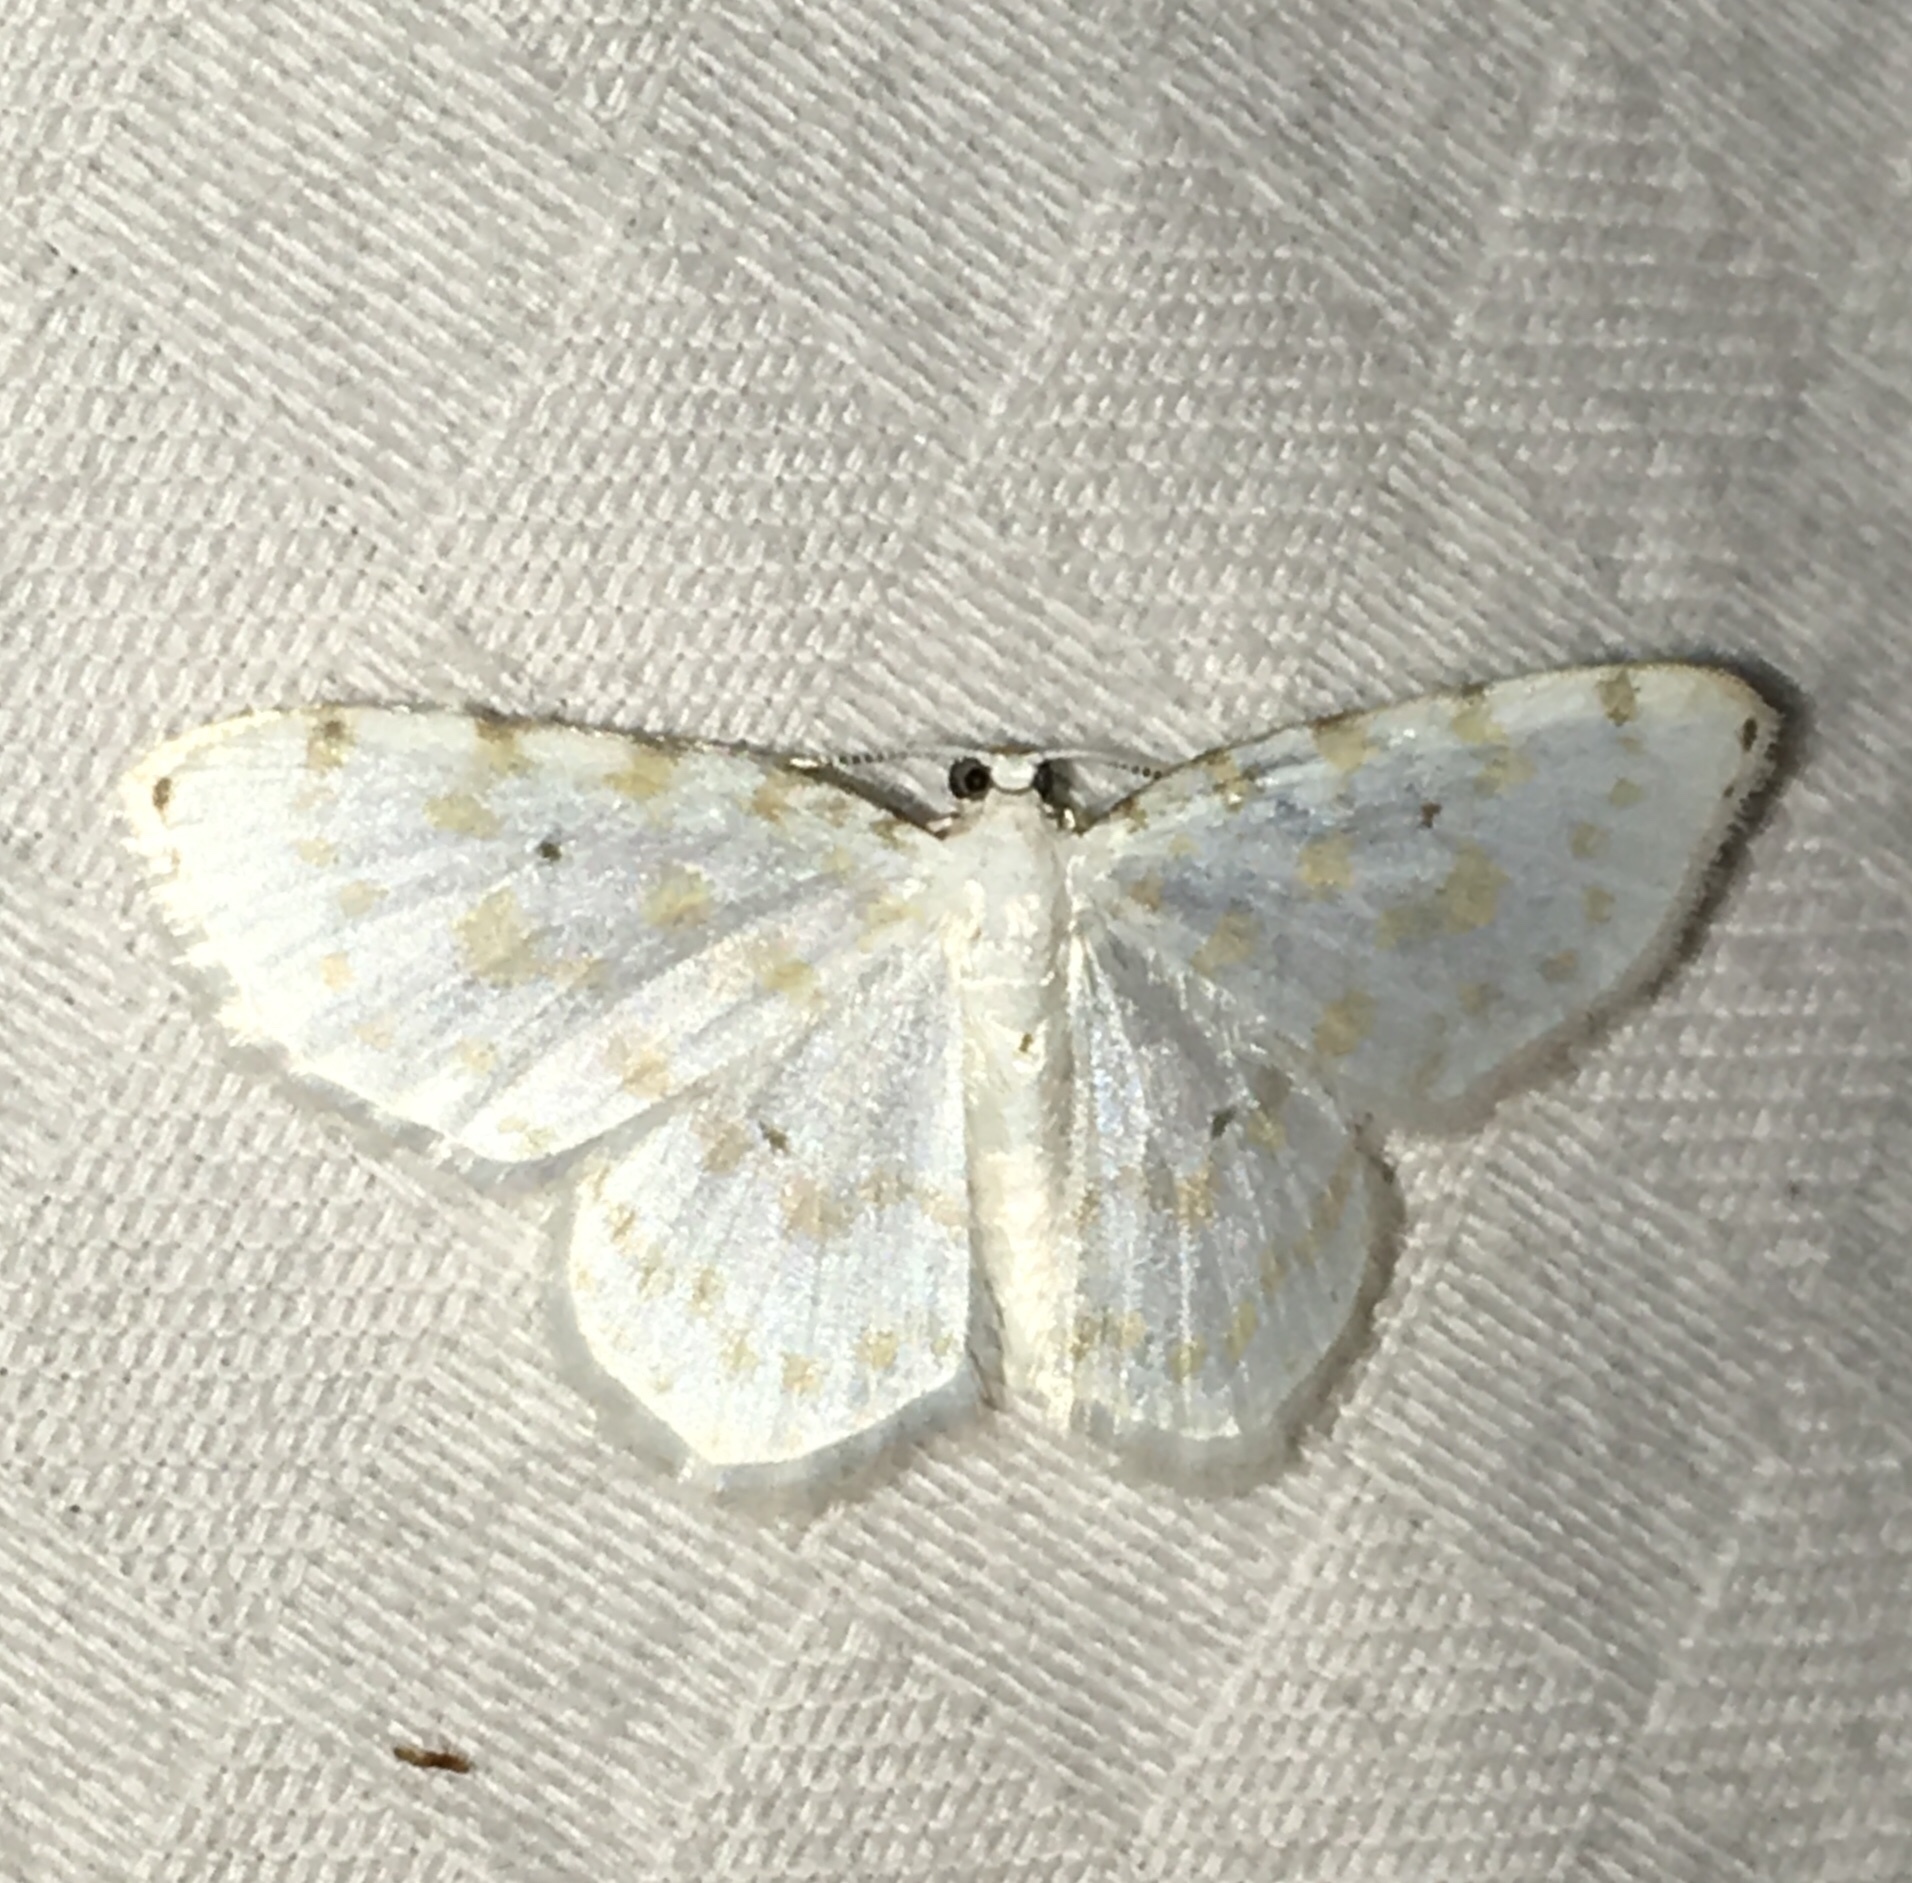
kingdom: Animalia
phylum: Arthropoda
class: Insecta
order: Lepidoptera
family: Geometridae
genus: Hydrelia
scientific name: Hydrelia albifera
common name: Fragile white carpet
